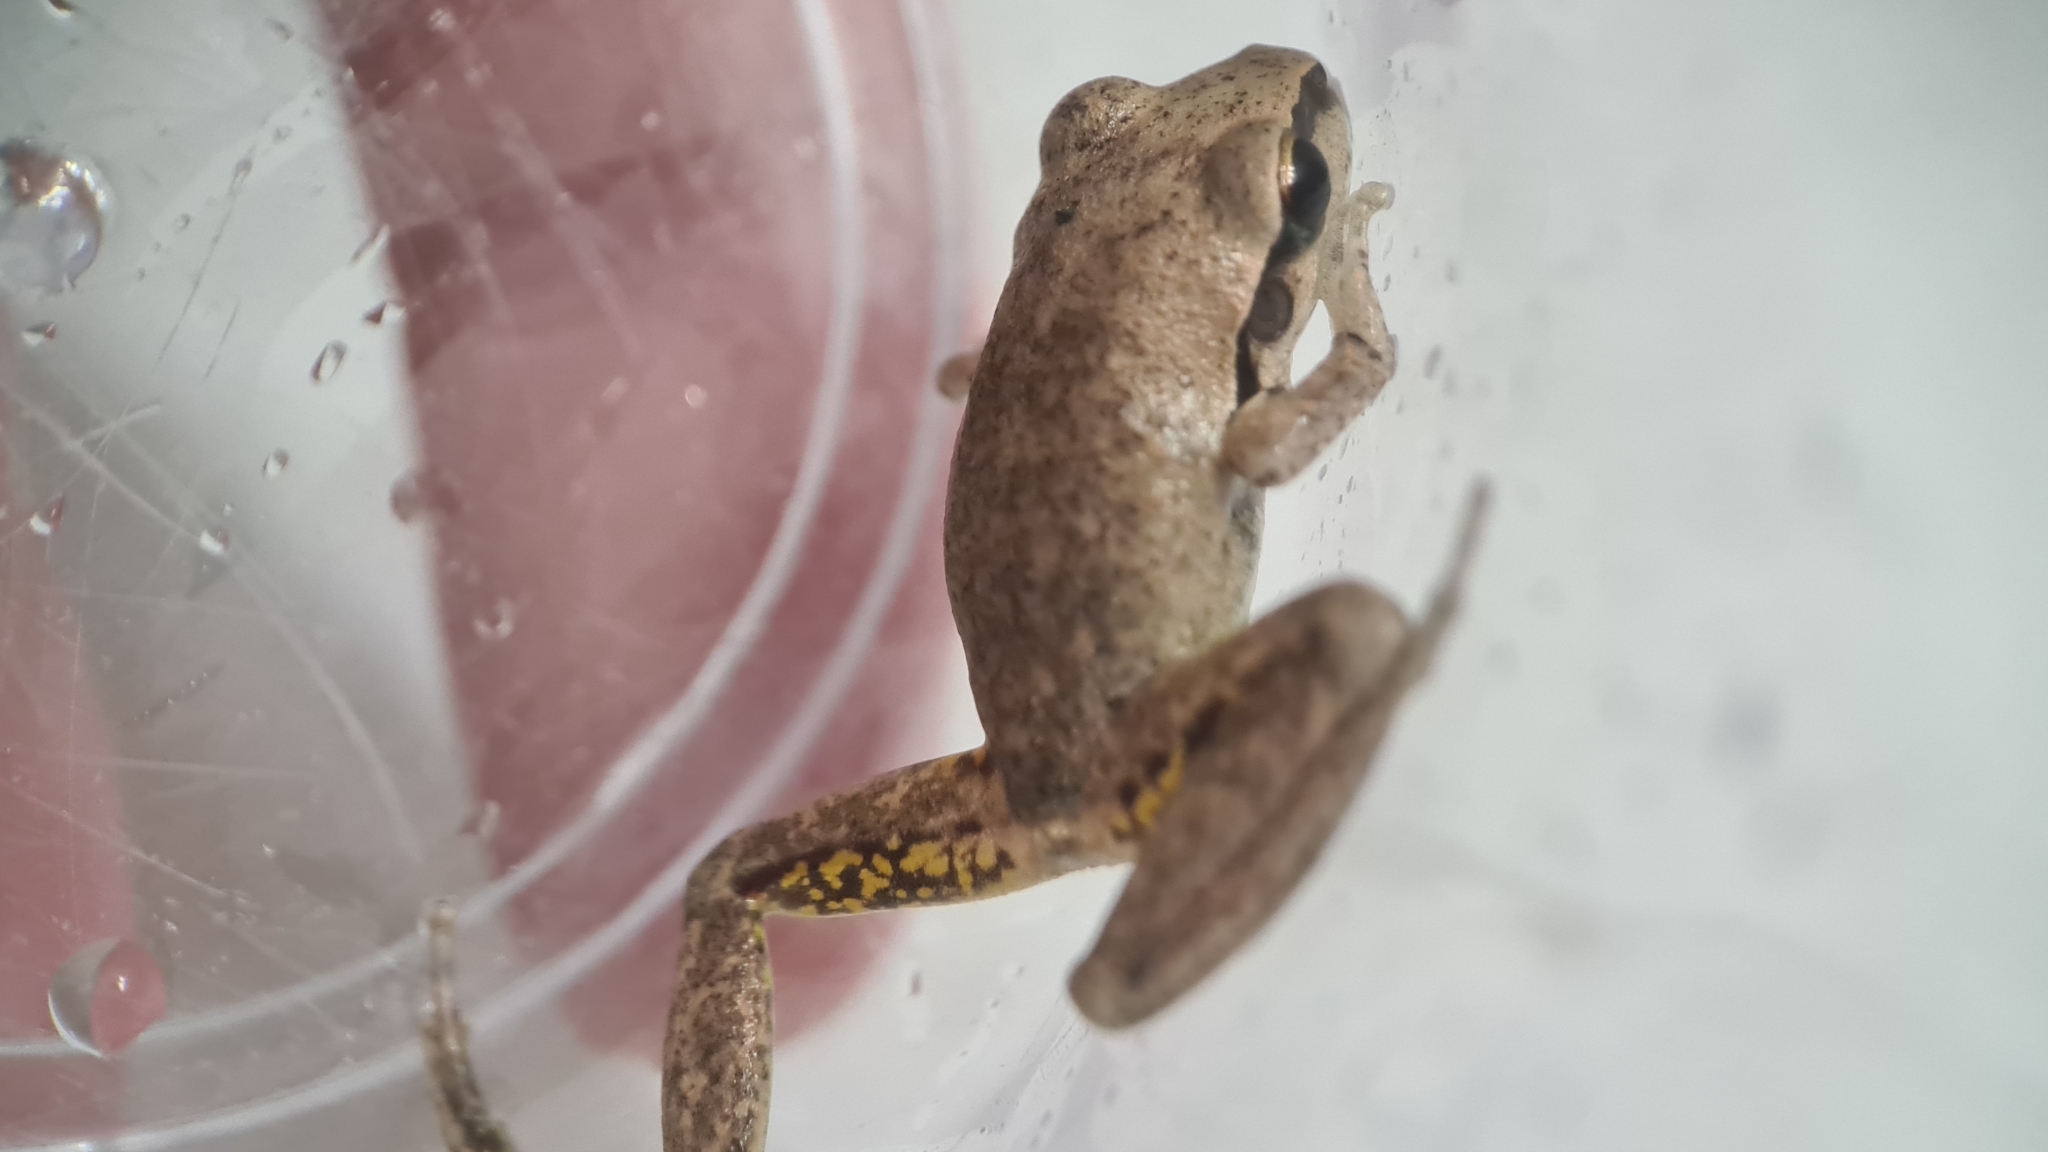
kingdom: Animalia
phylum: Chordata
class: Amphibia
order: Anura
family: Pelodryadidae
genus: Ranoidea
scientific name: Ranoidea wilcoxii
